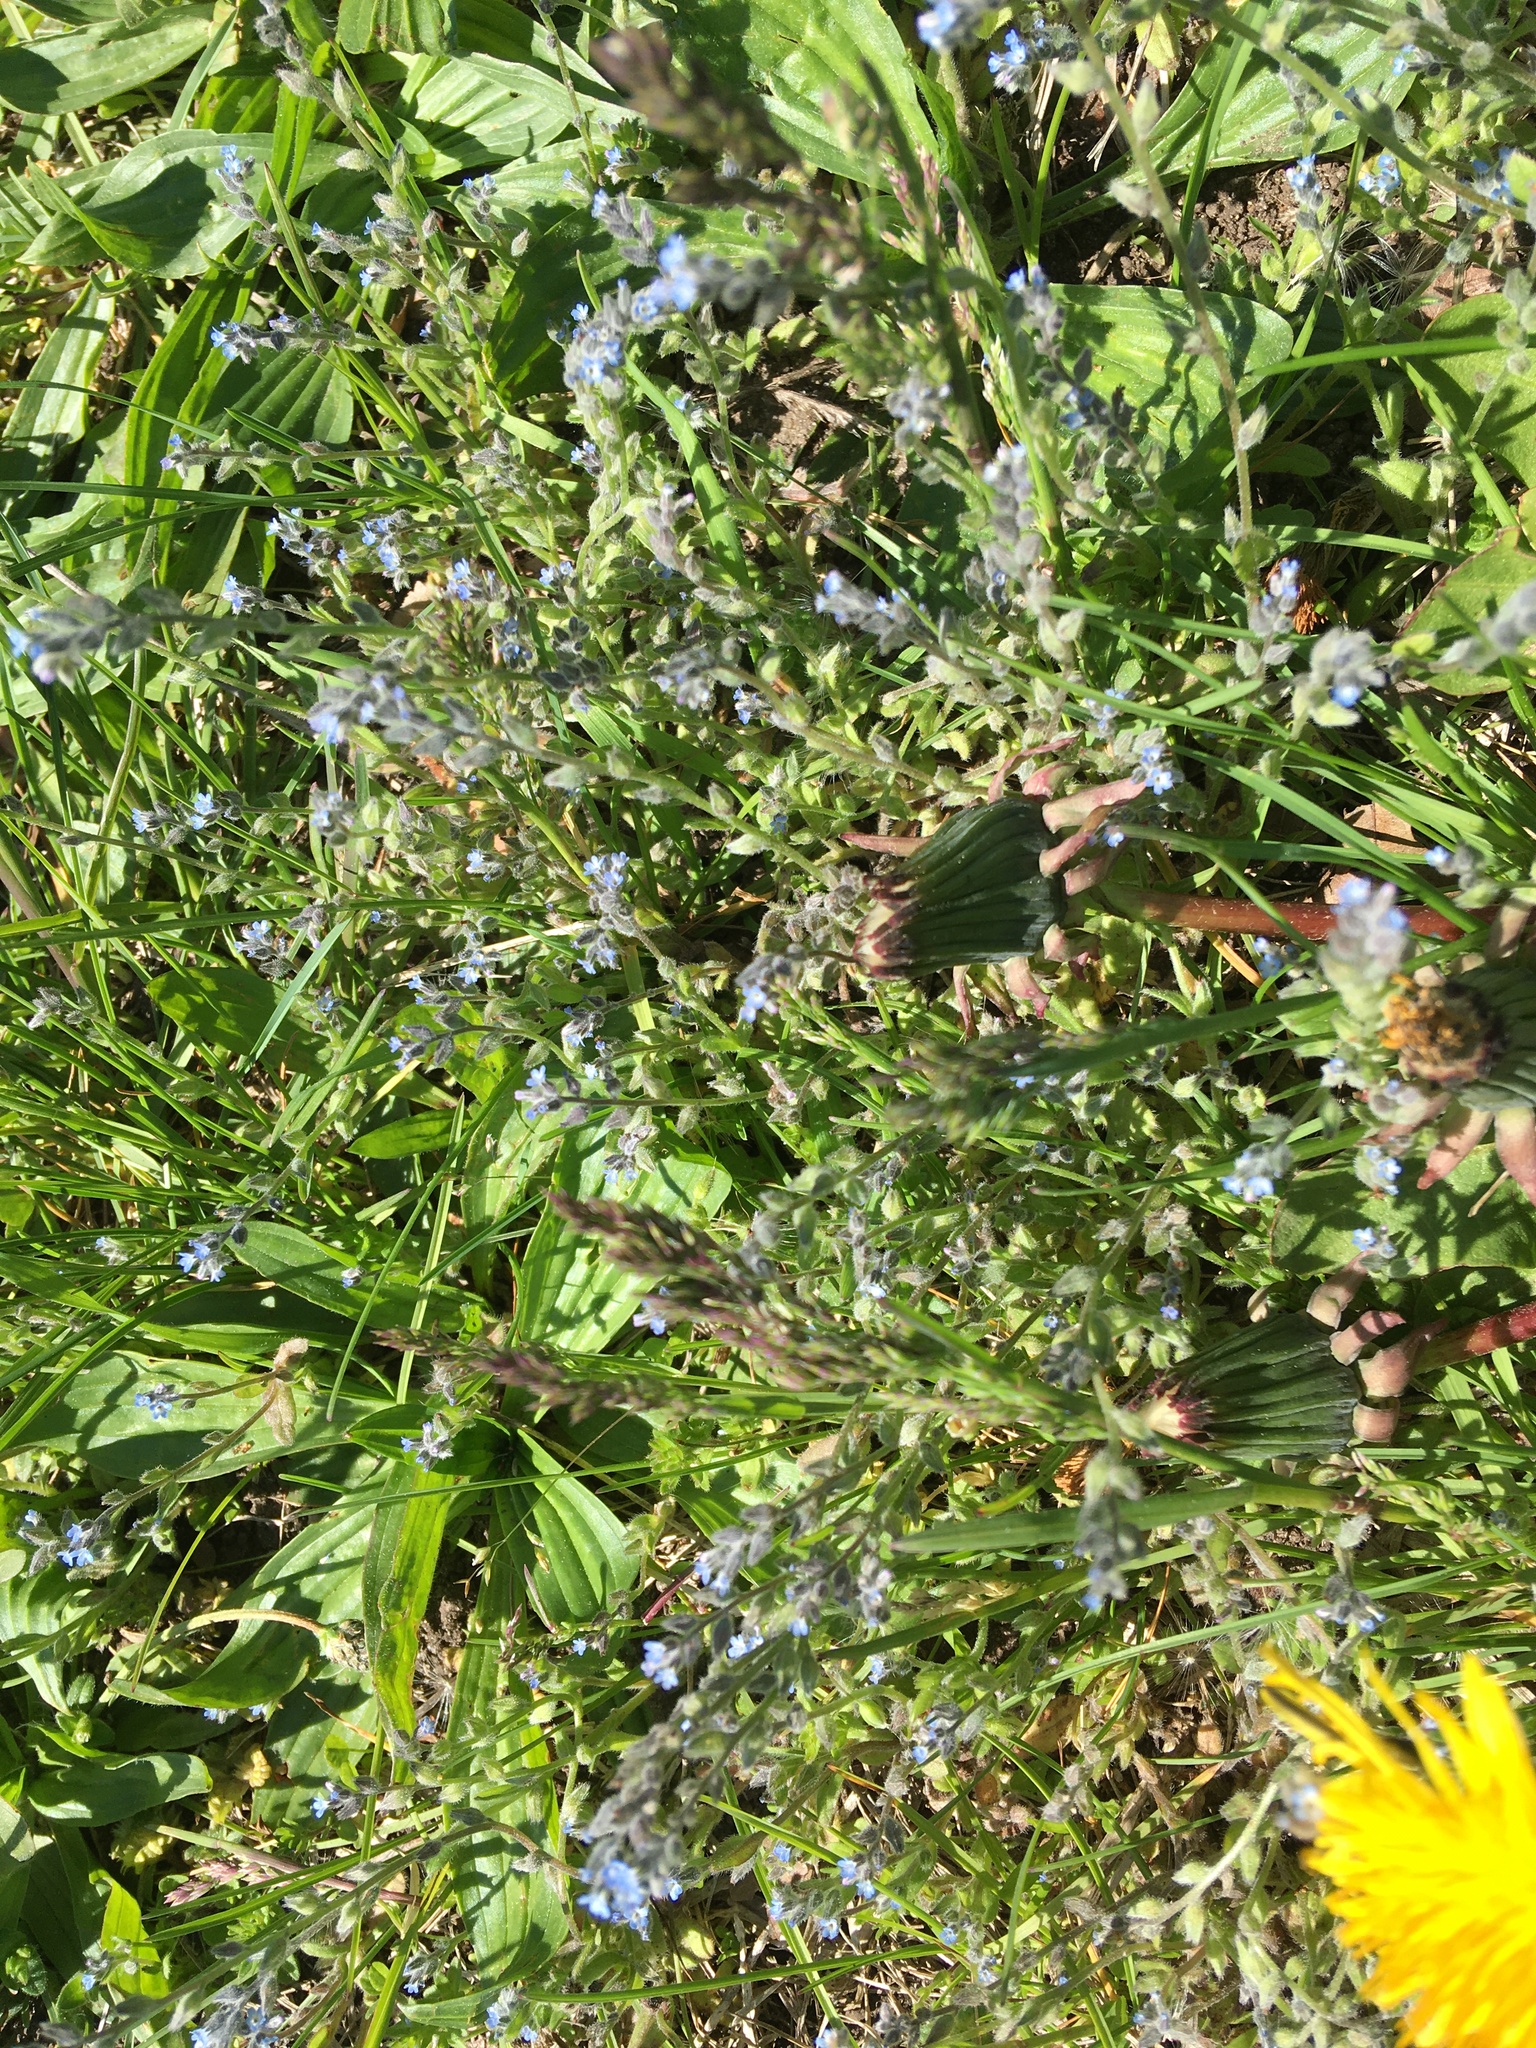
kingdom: Plantae
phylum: Tracheophyta
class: Magnoliopsida
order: Boraginales
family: Boraginaceae
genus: Myosotis
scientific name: Myosotis stricta
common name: Strict forget-me-not
